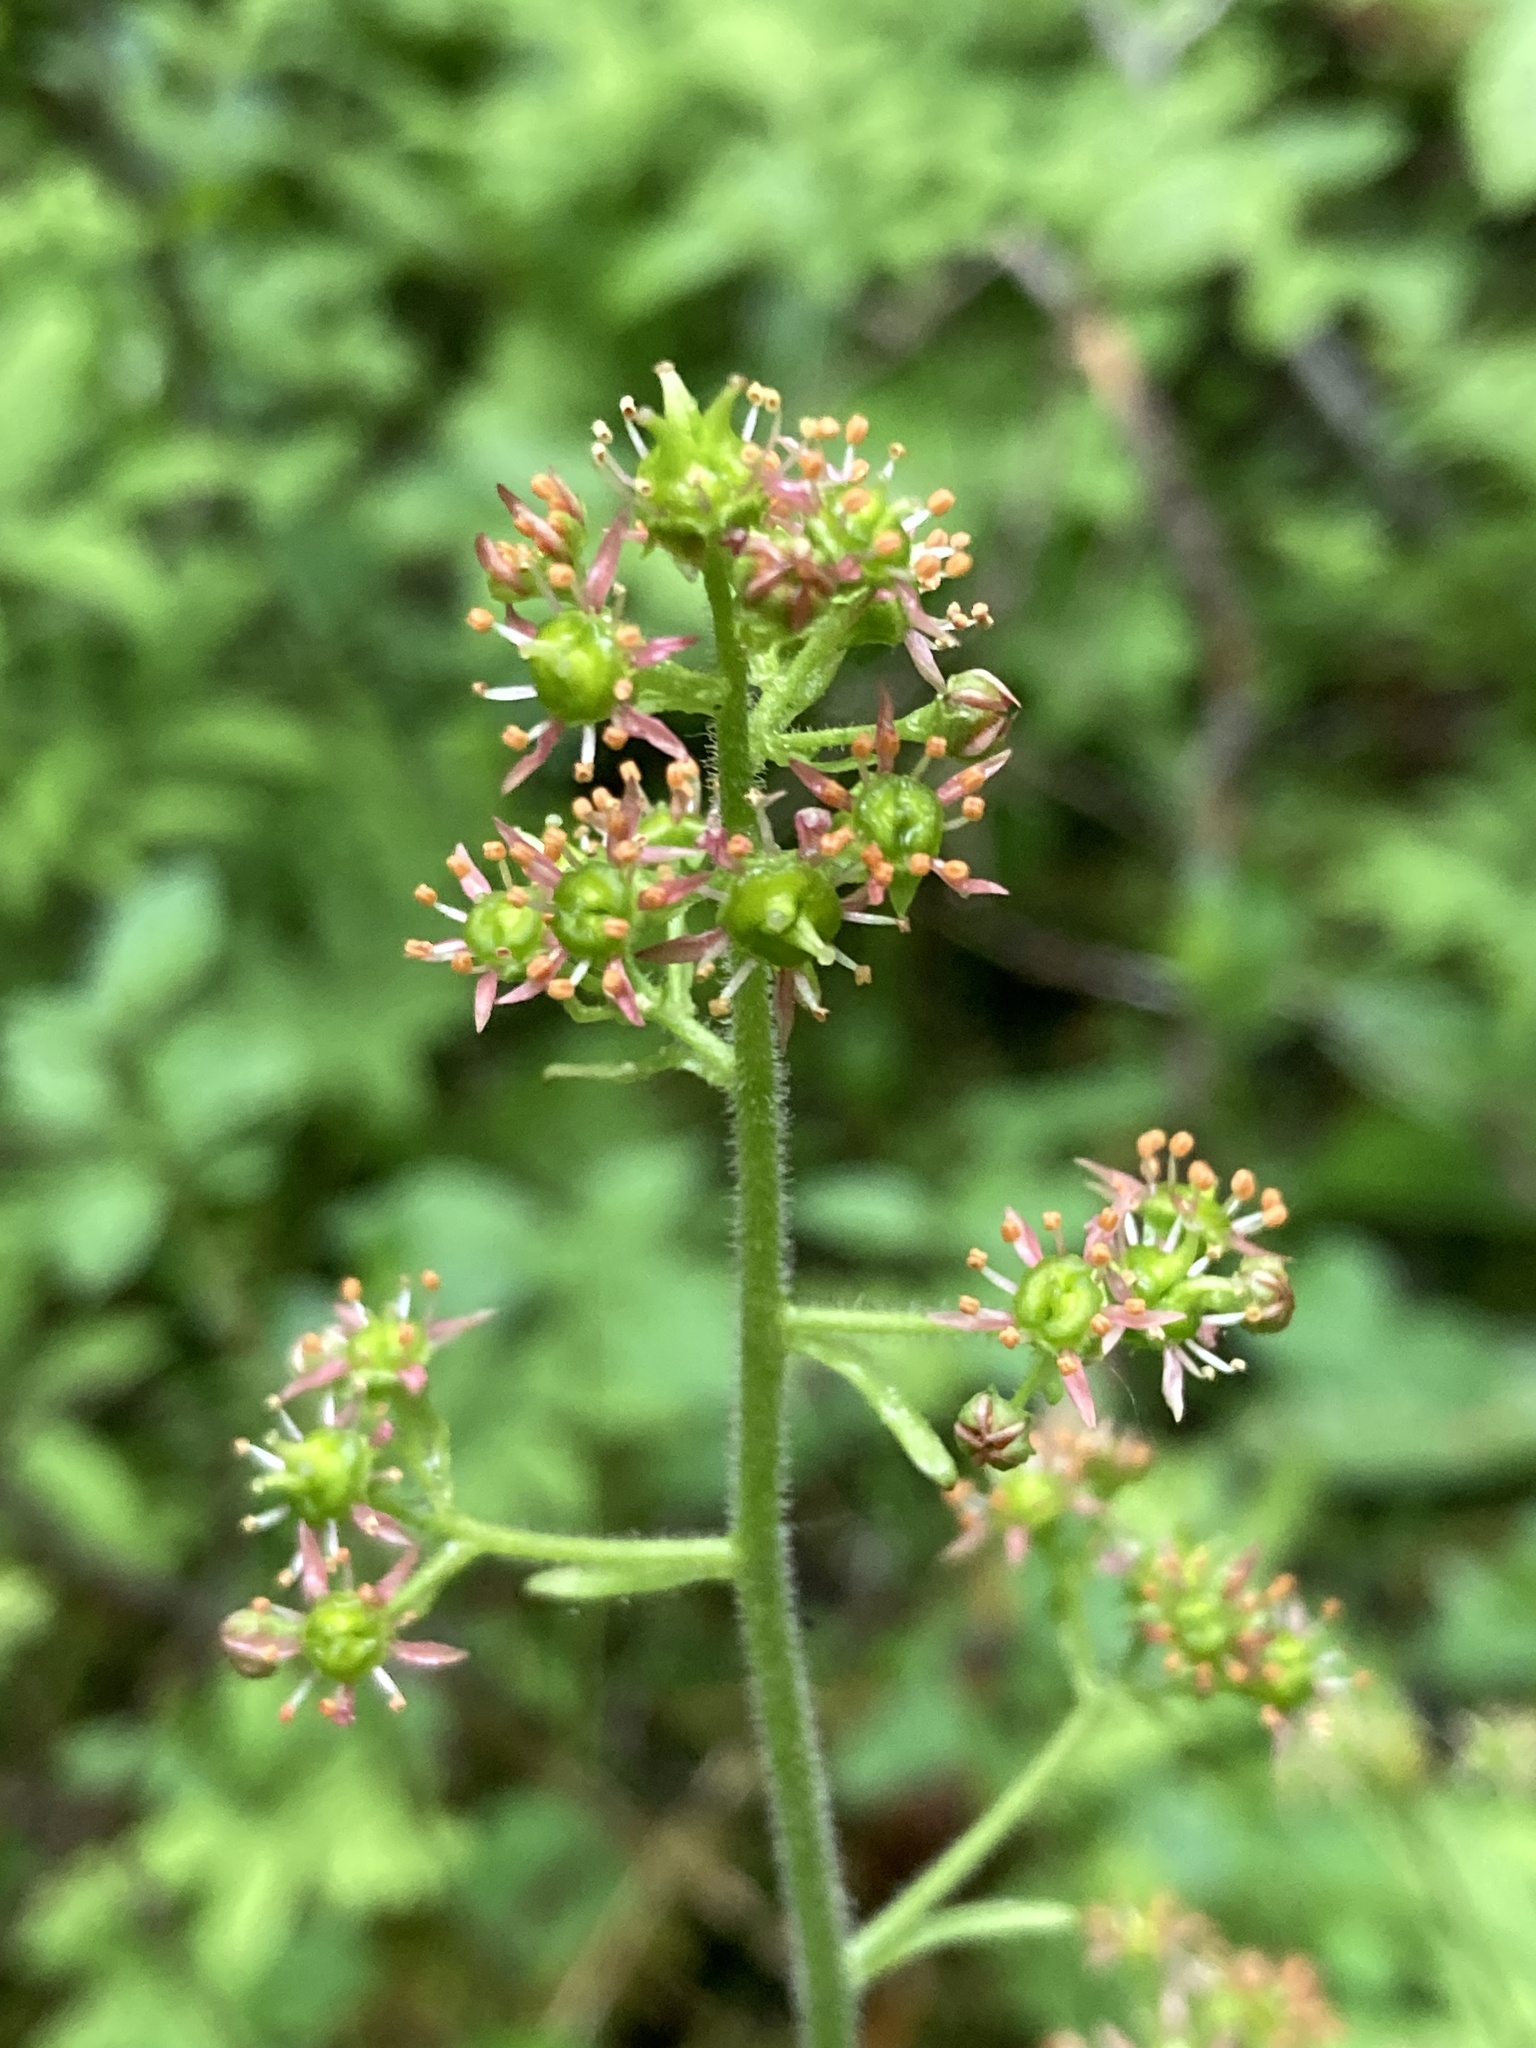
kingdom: Plantae
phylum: Tracheophyta
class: Magnoliopsida
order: Saxifragales
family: Saxifragaceae
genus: Micranthes
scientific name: Micranthes pensylvanica
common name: Marsh saxifrage
